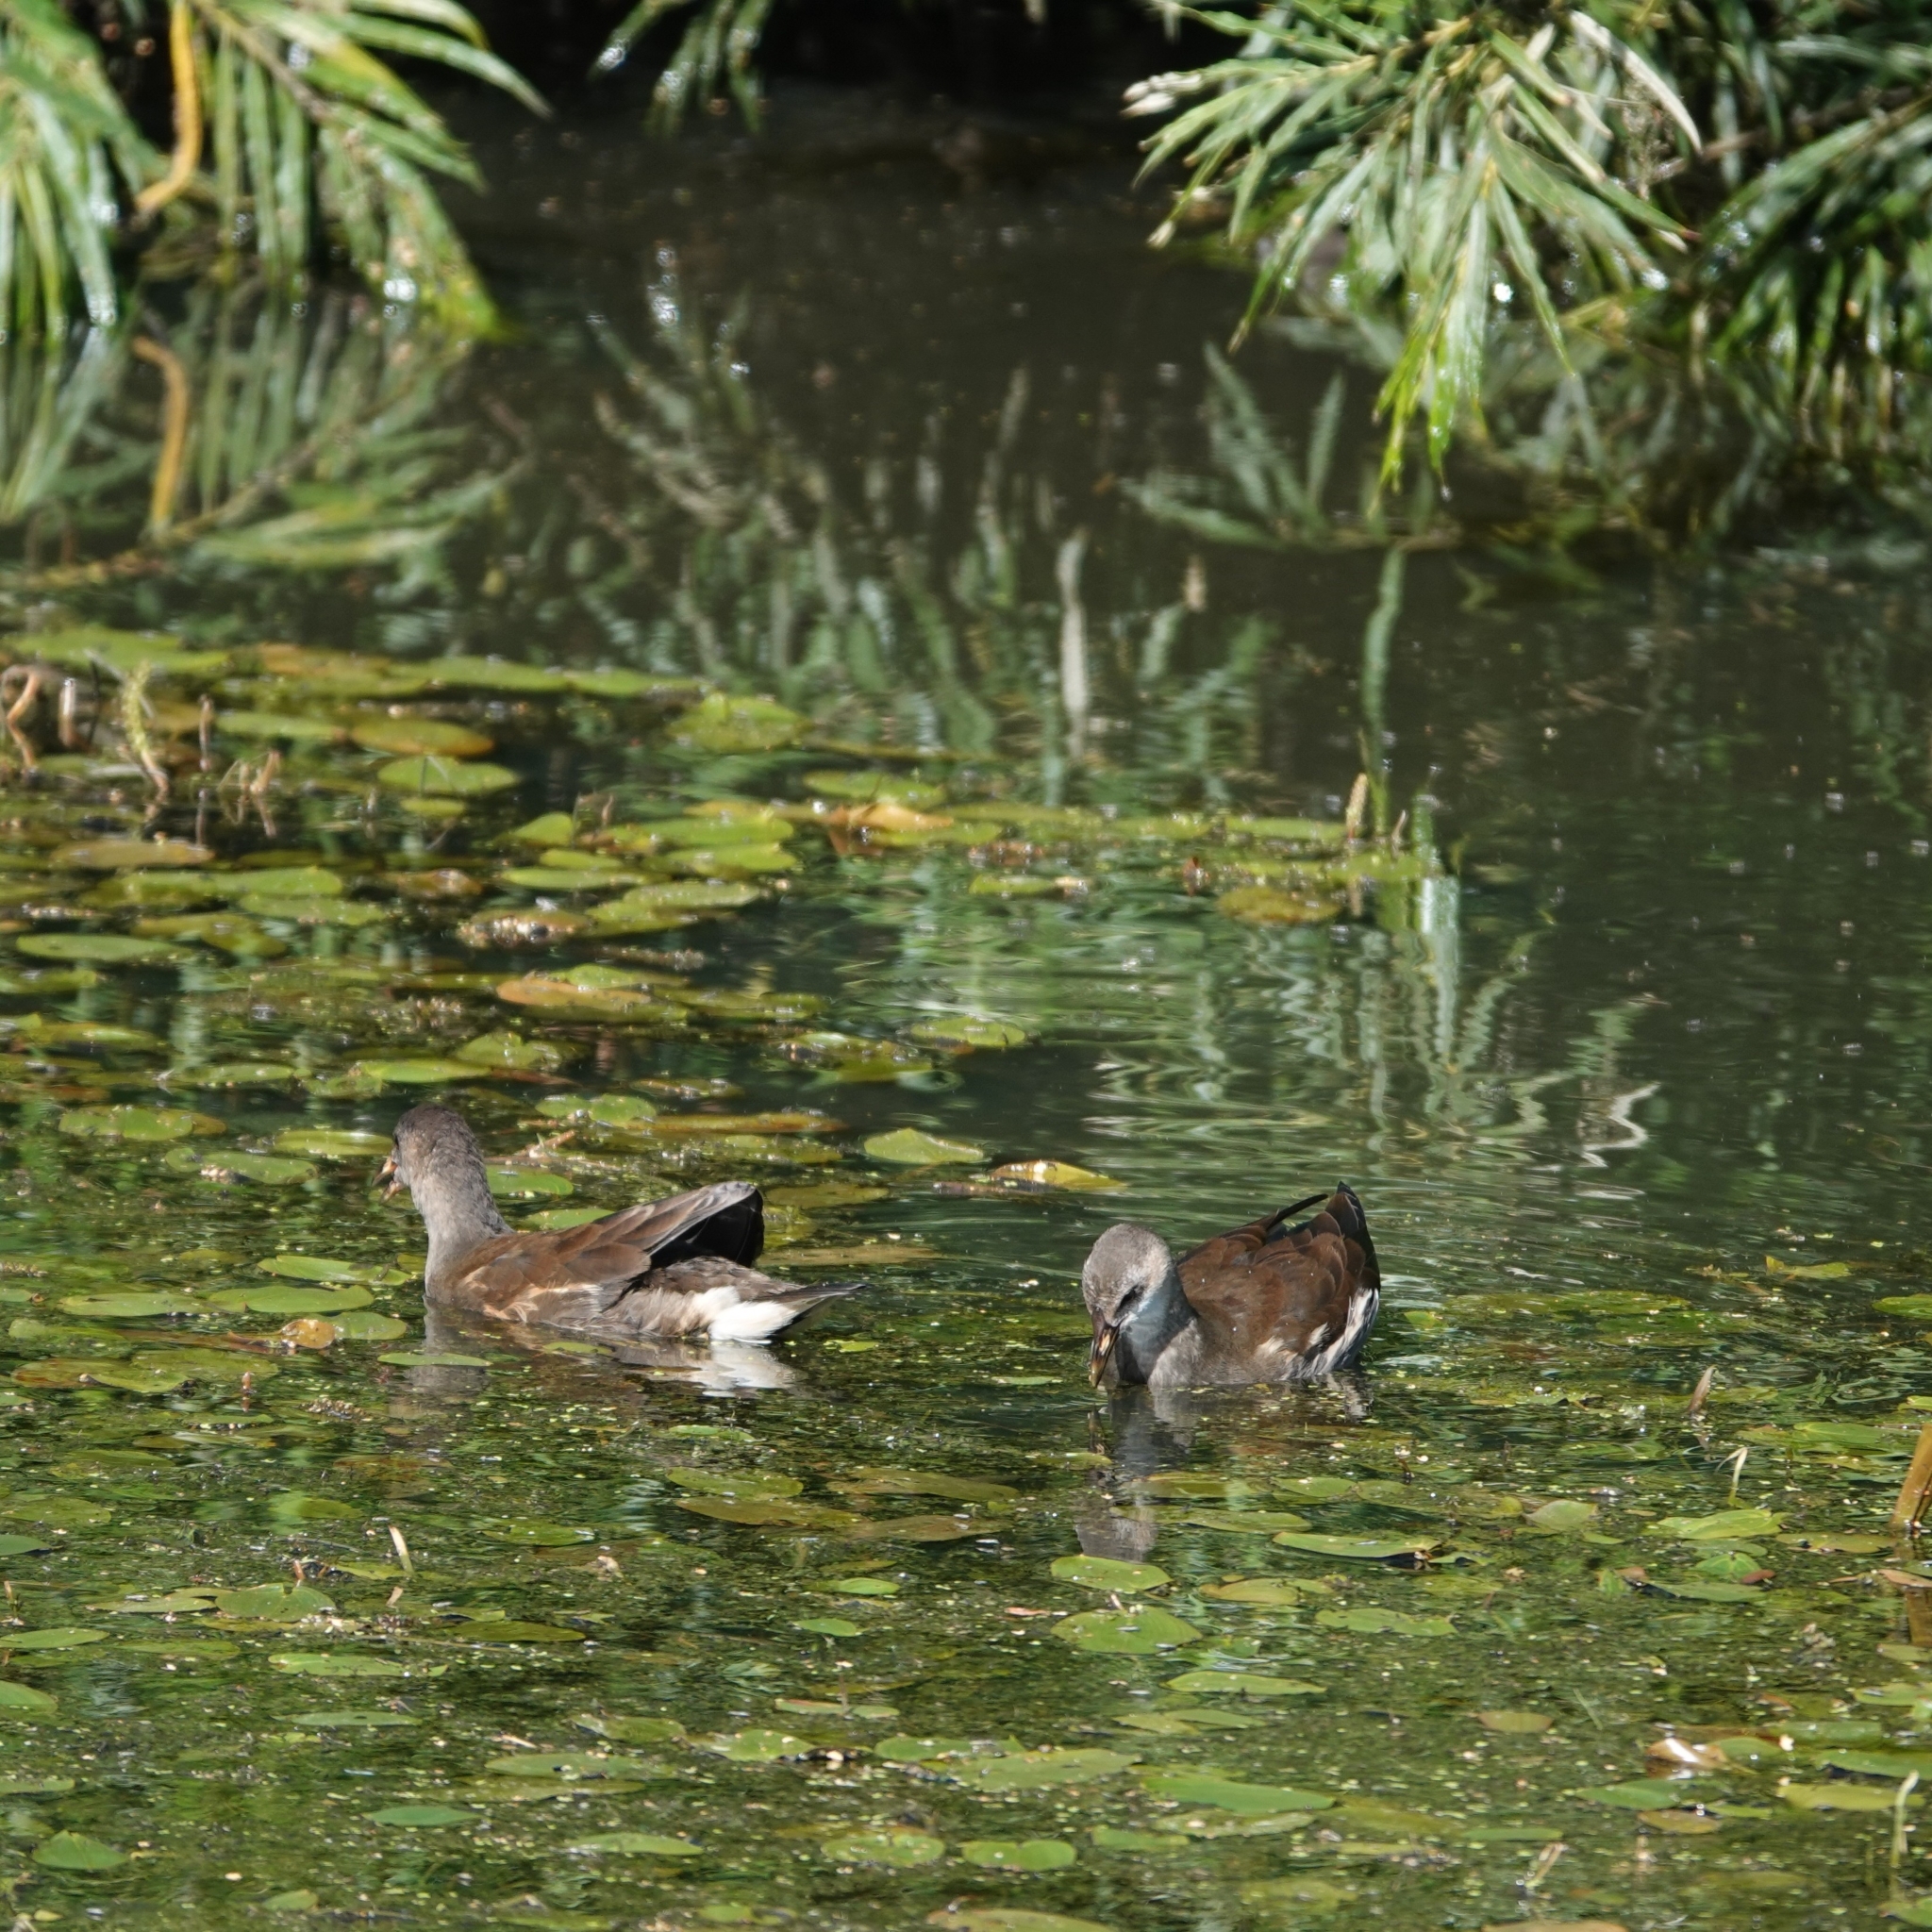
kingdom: Animalia
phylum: Chordata
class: Aves
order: Gruiformes
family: Rallidae
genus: Gallinula
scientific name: Gallinula chloropus
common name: Common moorhen
